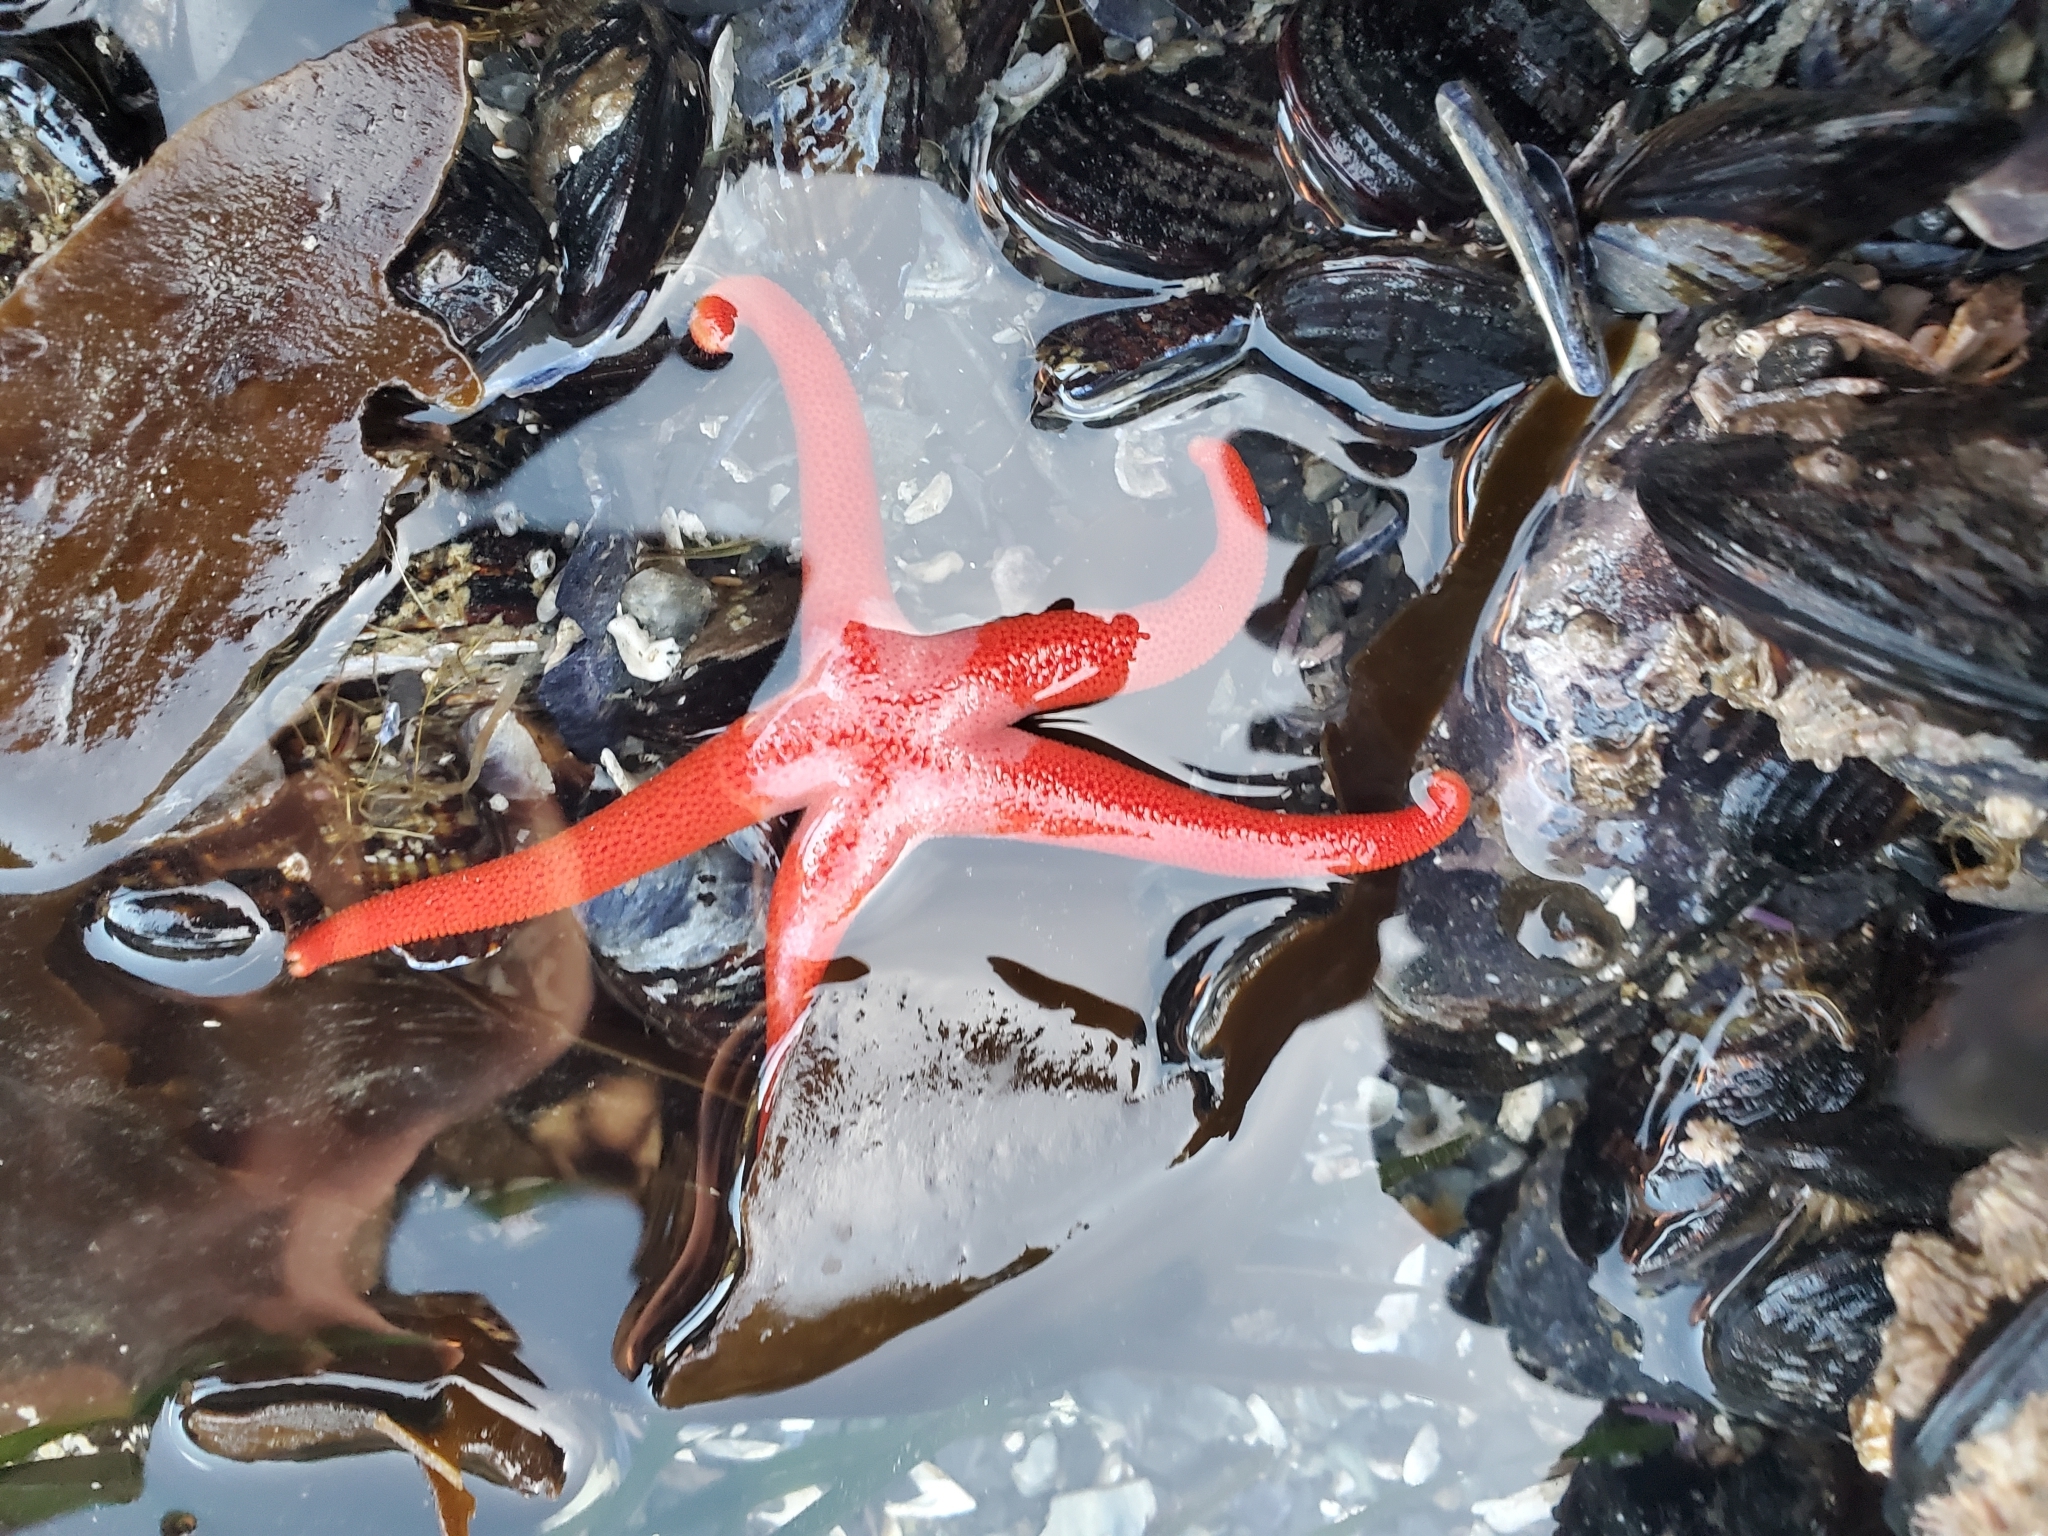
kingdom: Animalia
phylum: Echinodermata
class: Asteroidea
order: Spinulosida
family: Echinasteridae
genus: Henricia
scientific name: Henricia leviuscula
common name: Pacific blood star
